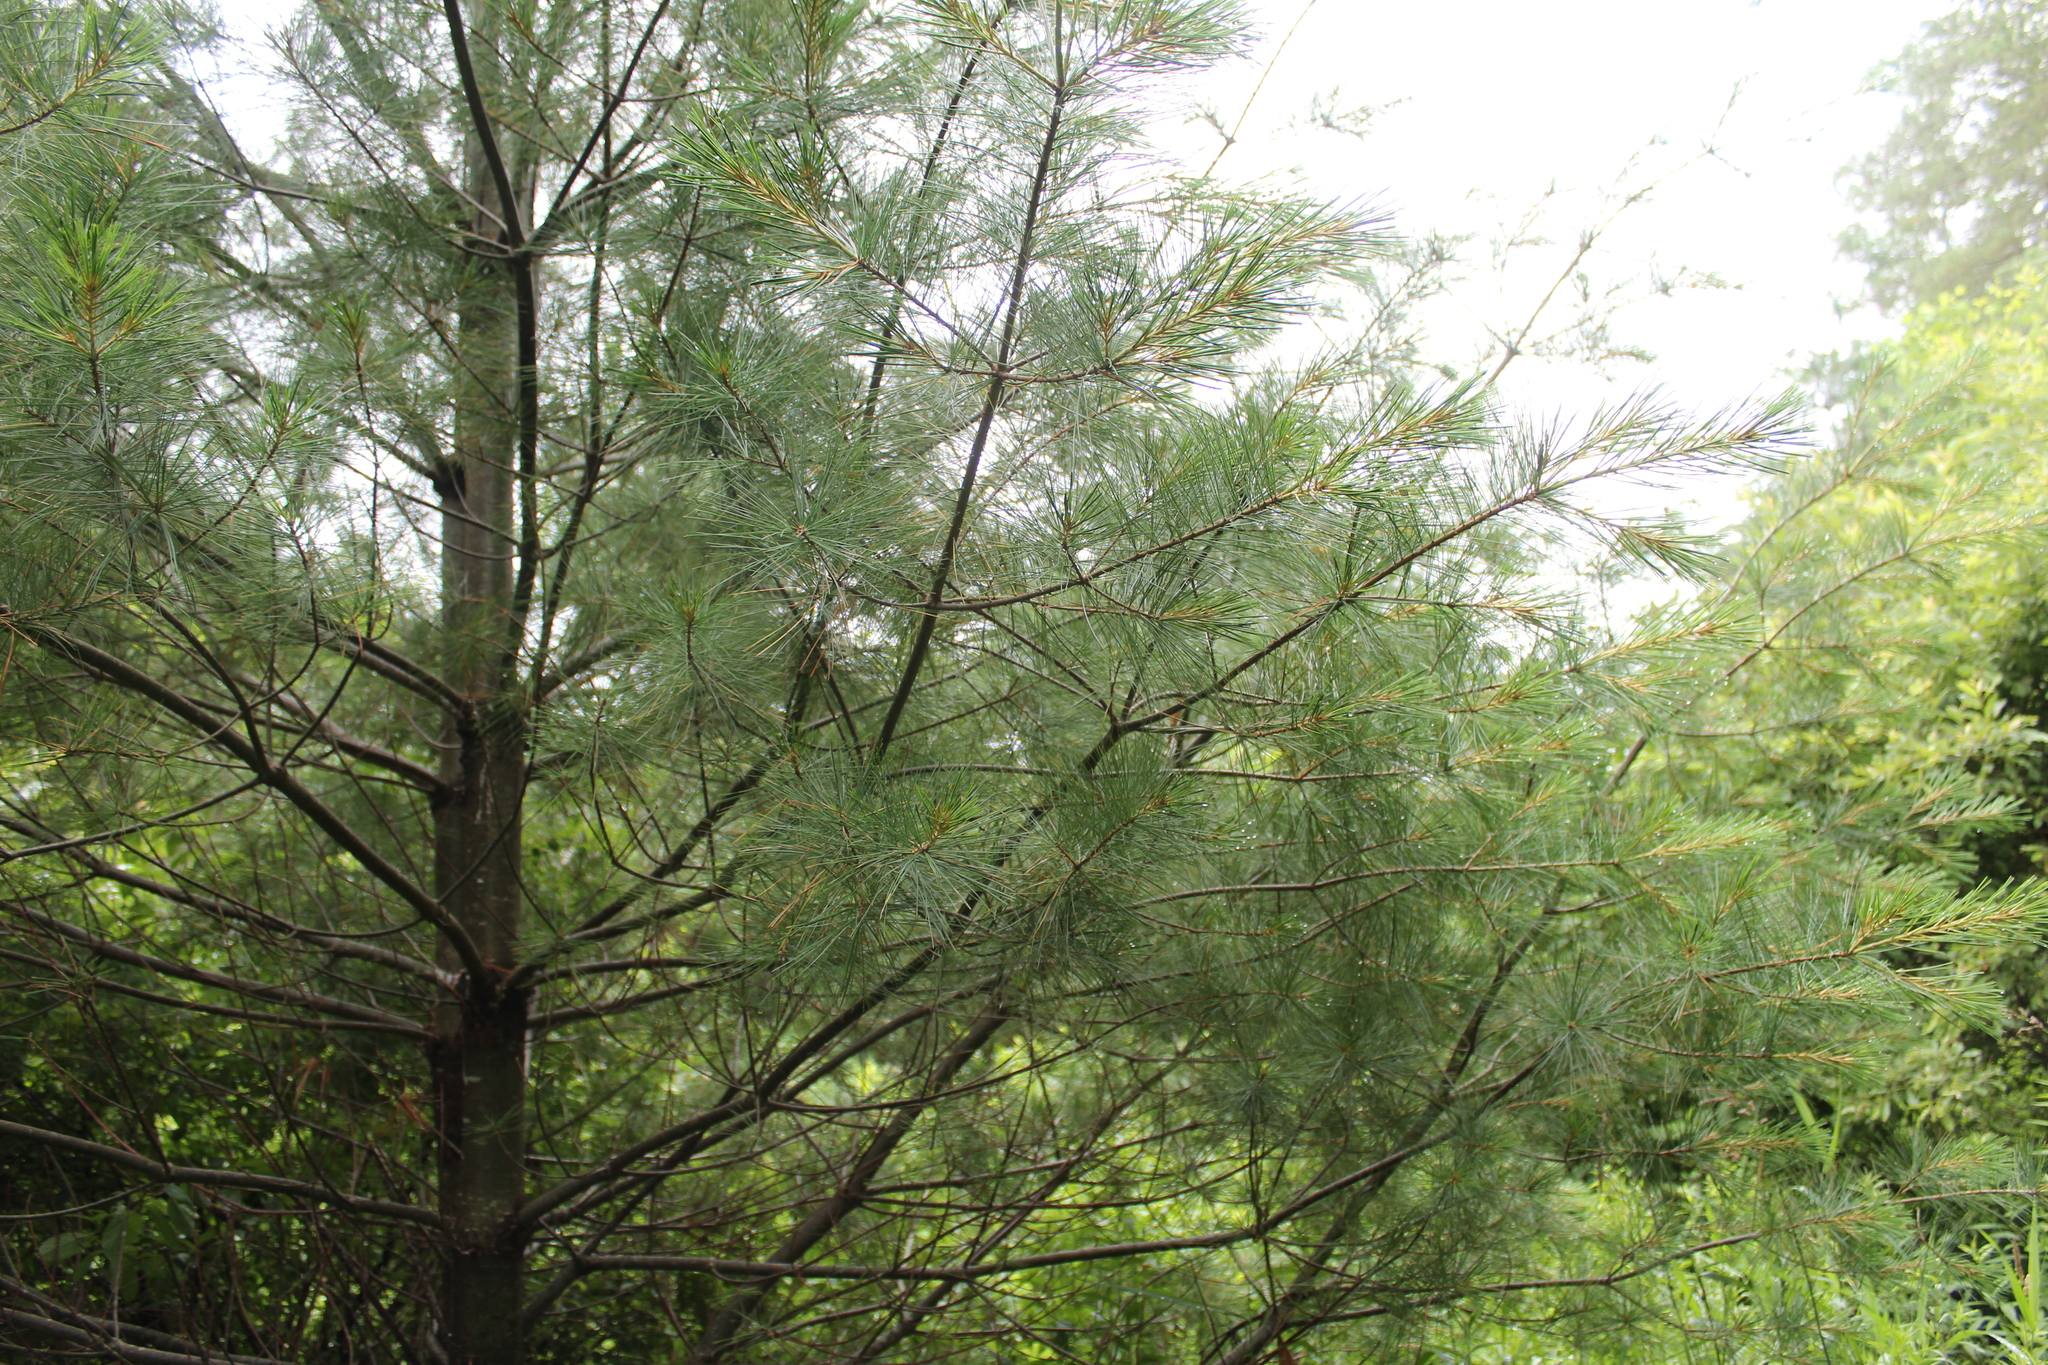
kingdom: Plantae
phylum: Tracheophyta
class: Pinopsida
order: Pinales
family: Pinaceae
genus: Pinus
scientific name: Pinus strobus
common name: Weymouth pine
